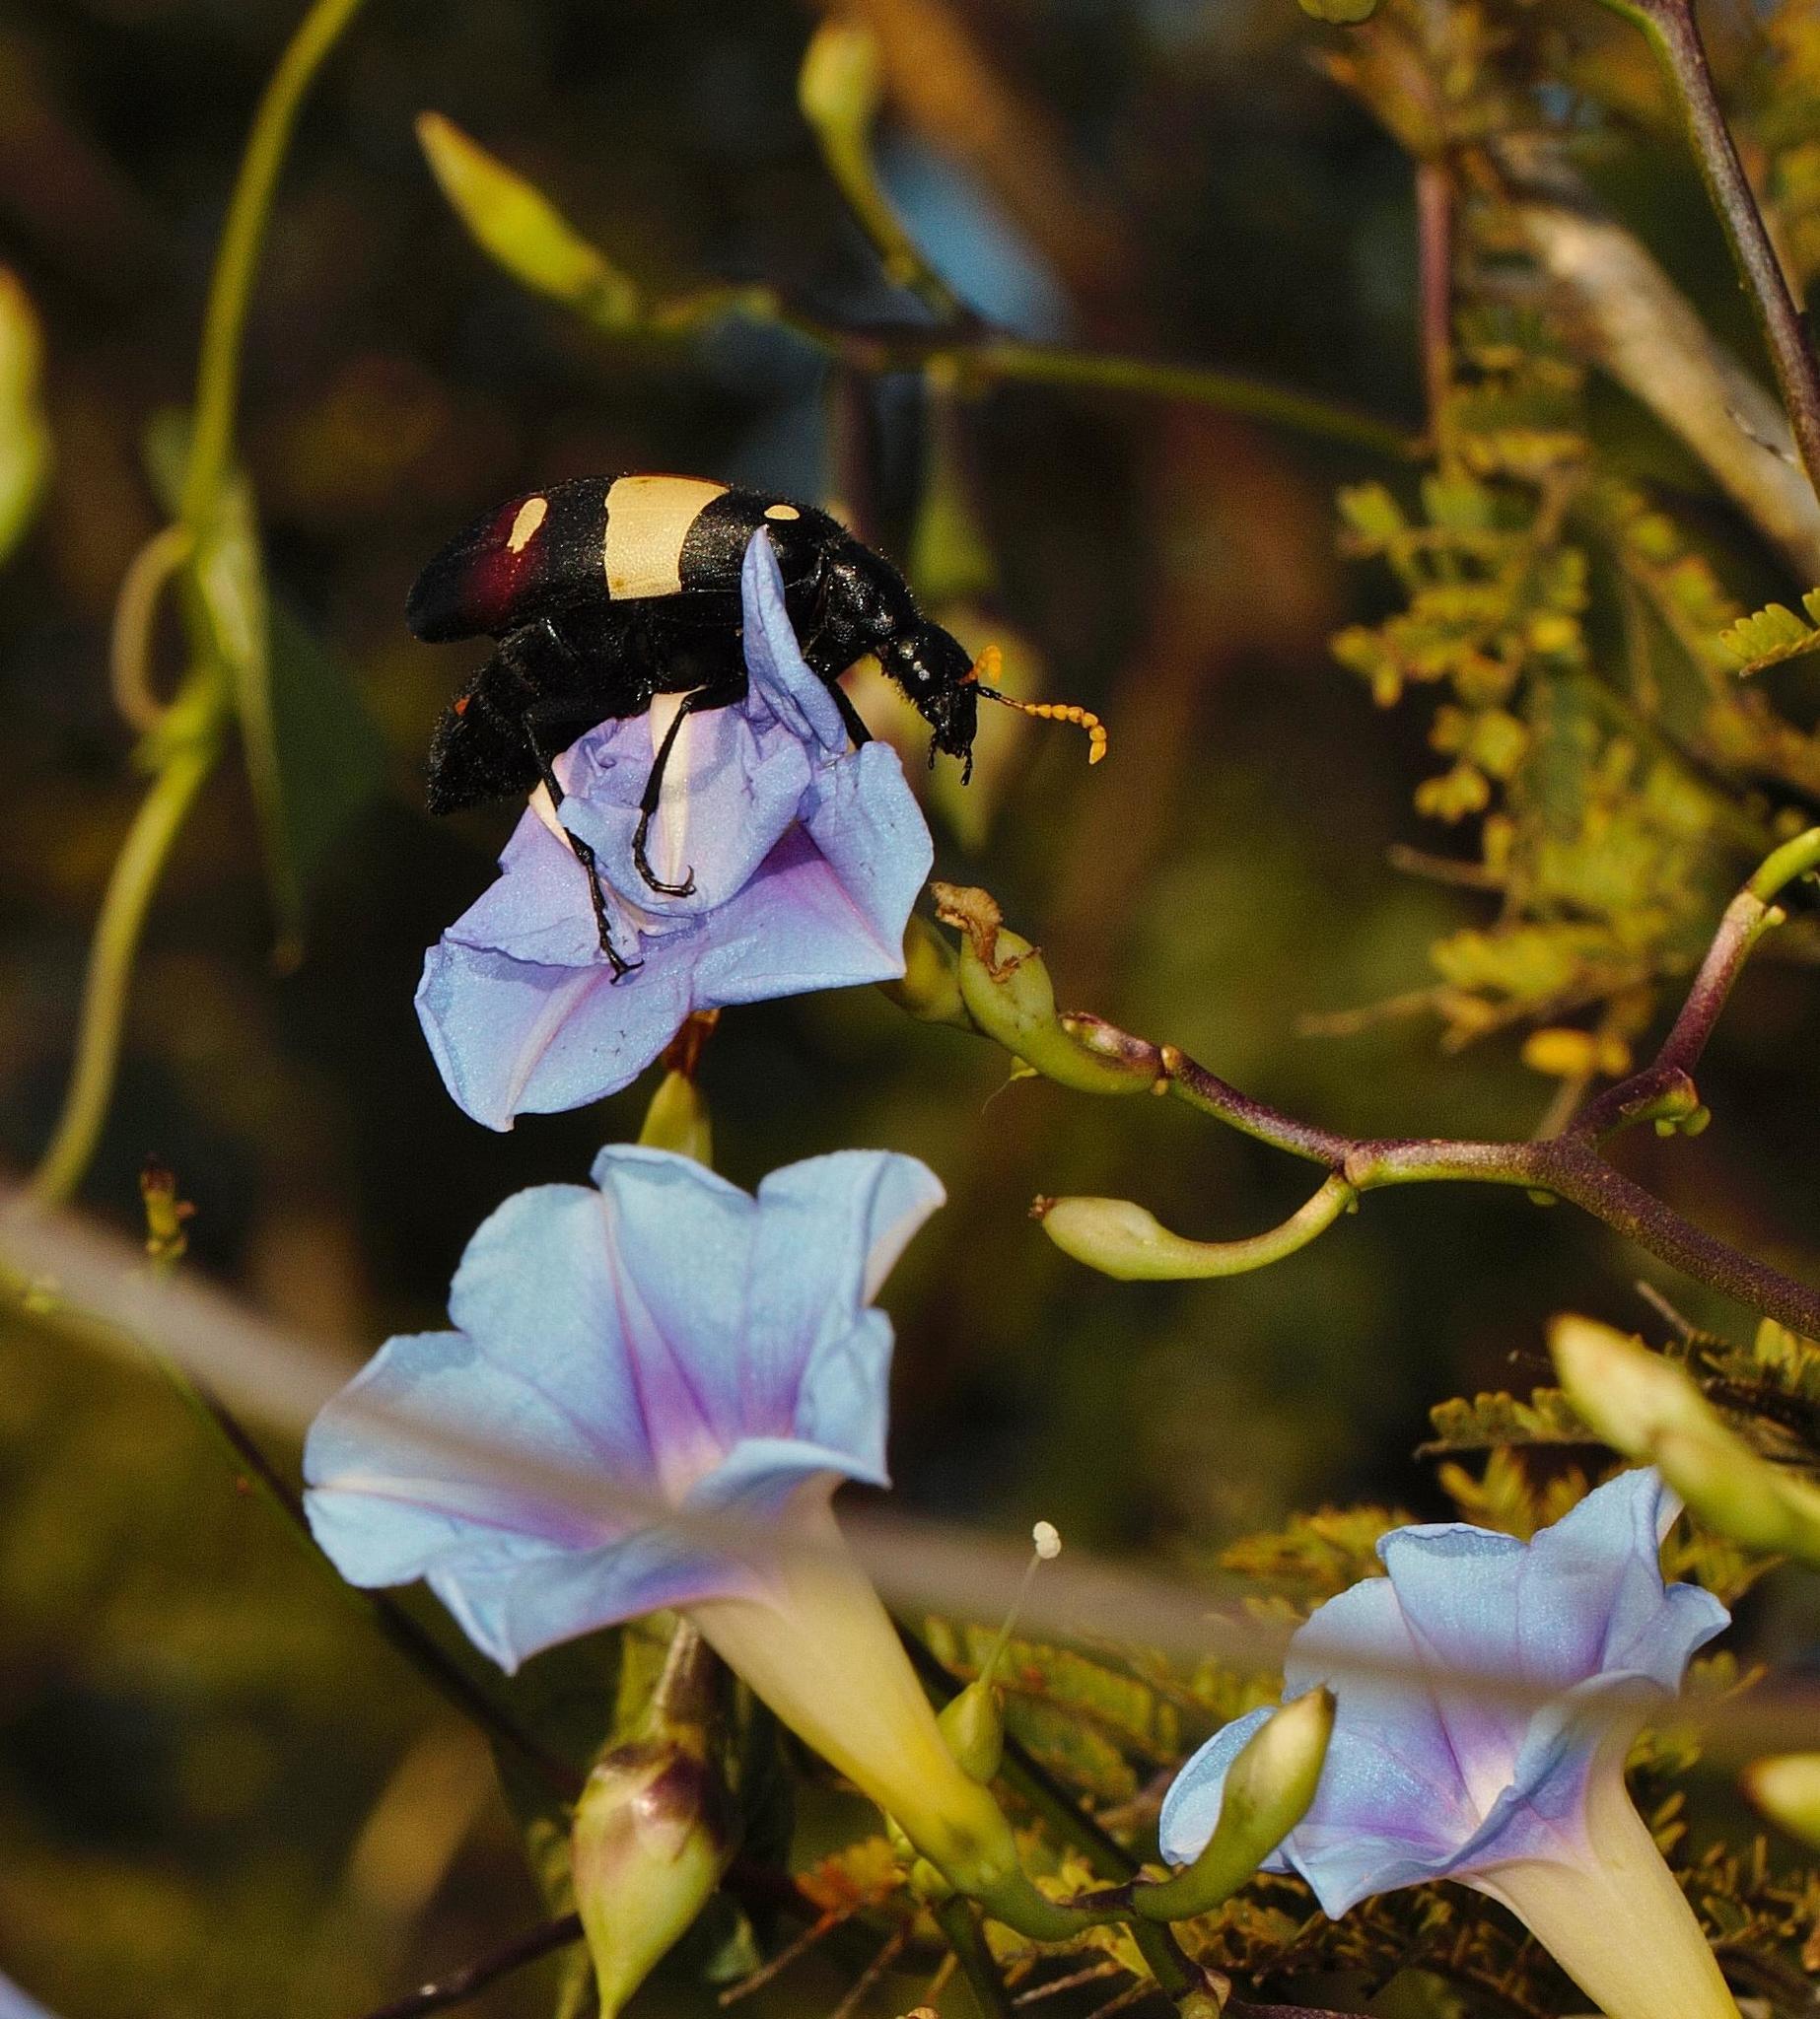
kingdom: Animalia
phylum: Arthropoda
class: Insecta
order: Coleoptera
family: Meloidae
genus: Hycleus
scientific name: Hycleus
